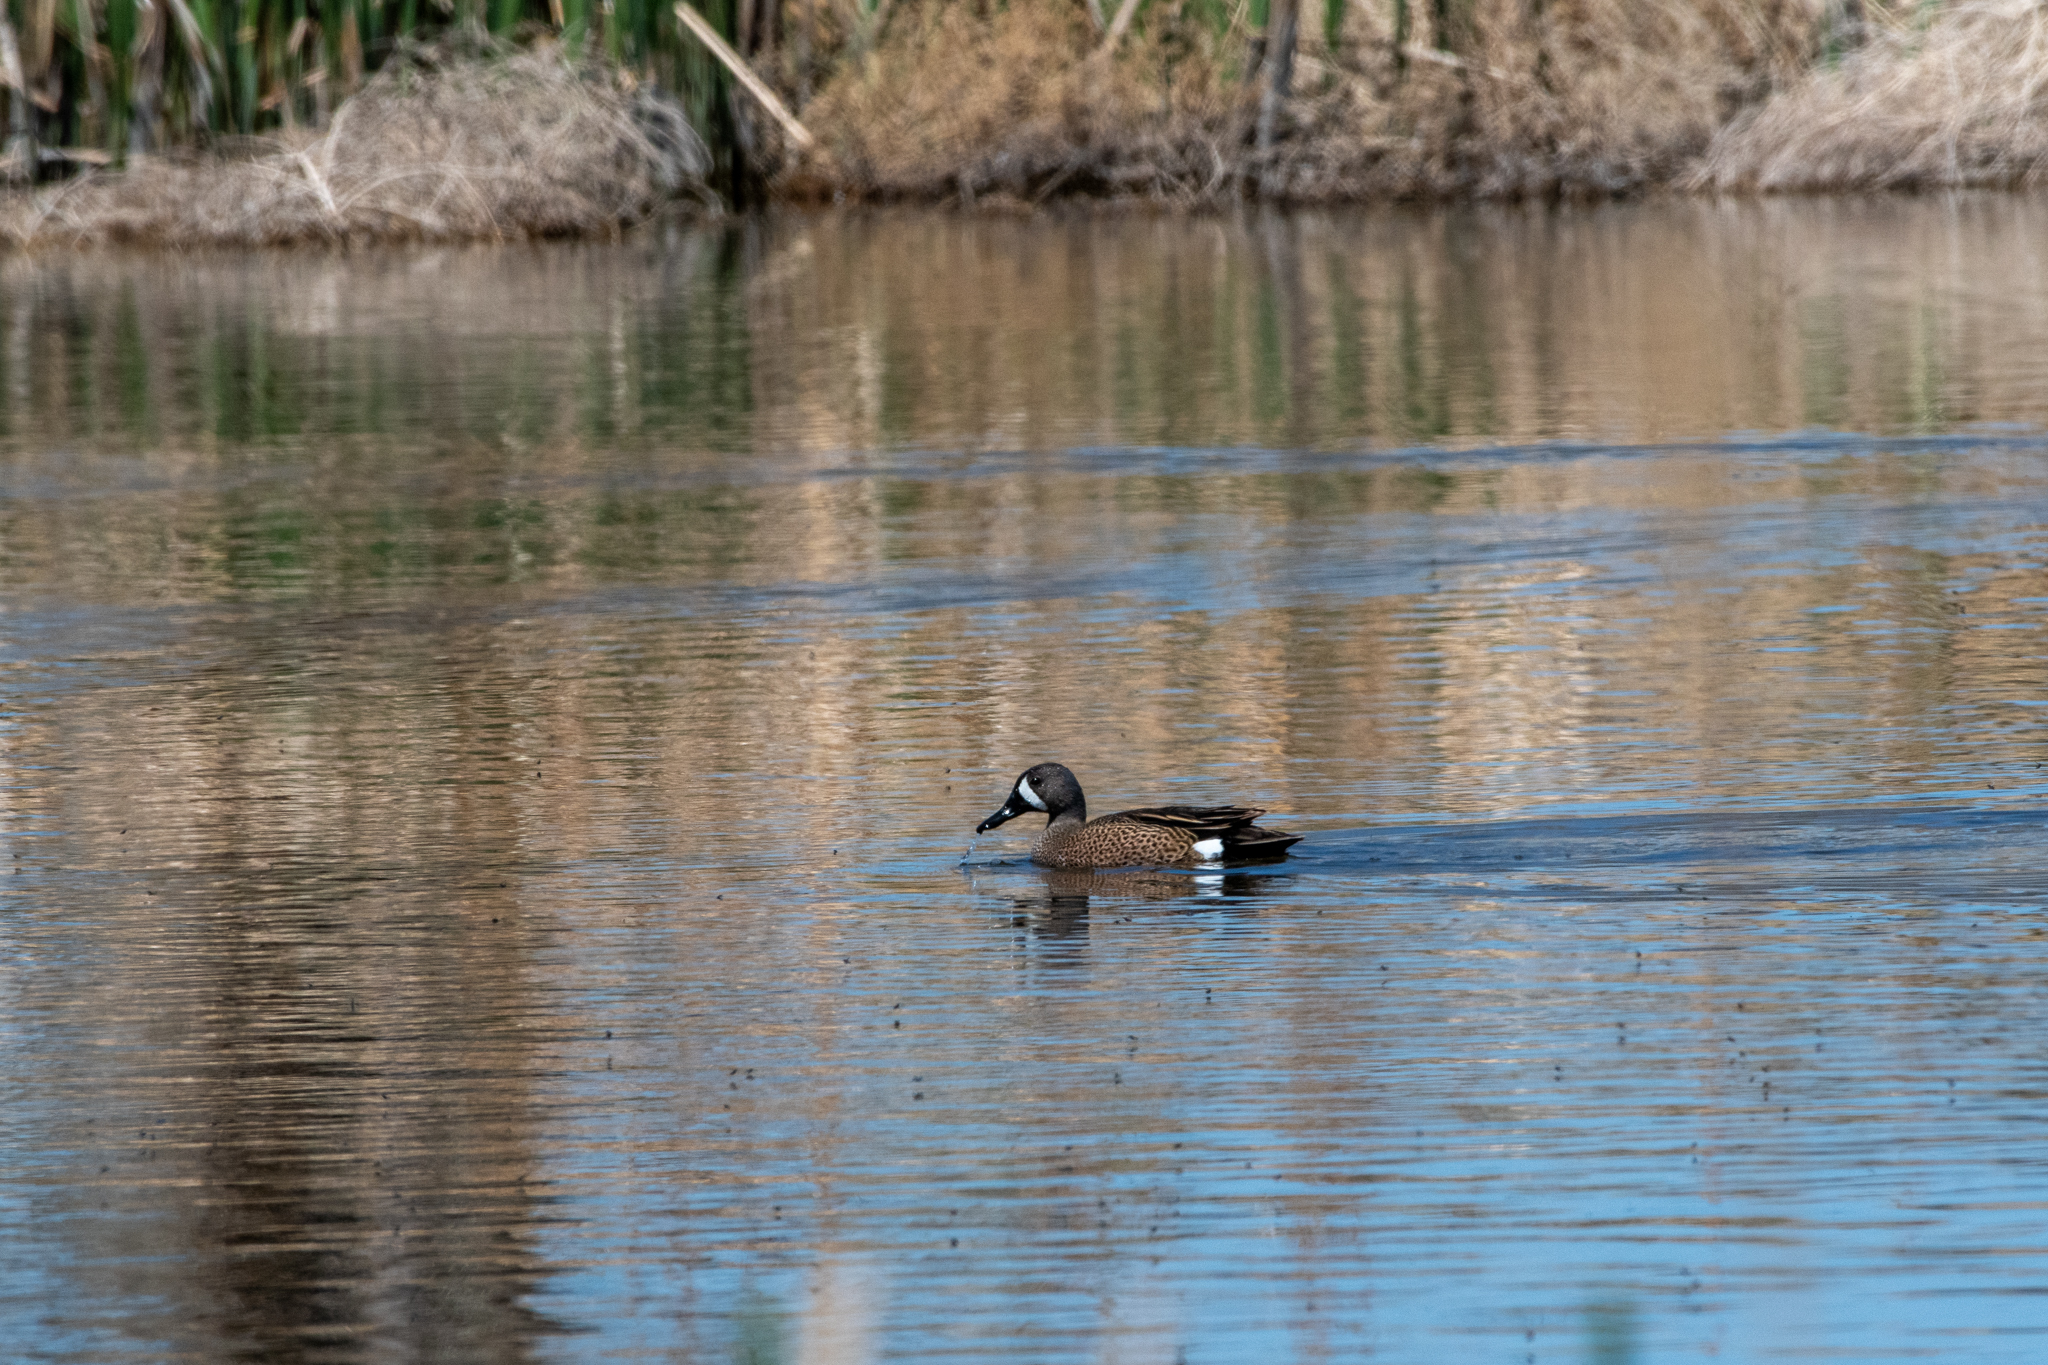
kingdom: Animalia
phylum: Chordata
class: Aves
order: Anseriformes
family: Anatidae
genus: Spatula
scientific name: Spatula discors
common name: Blue-winged teal
